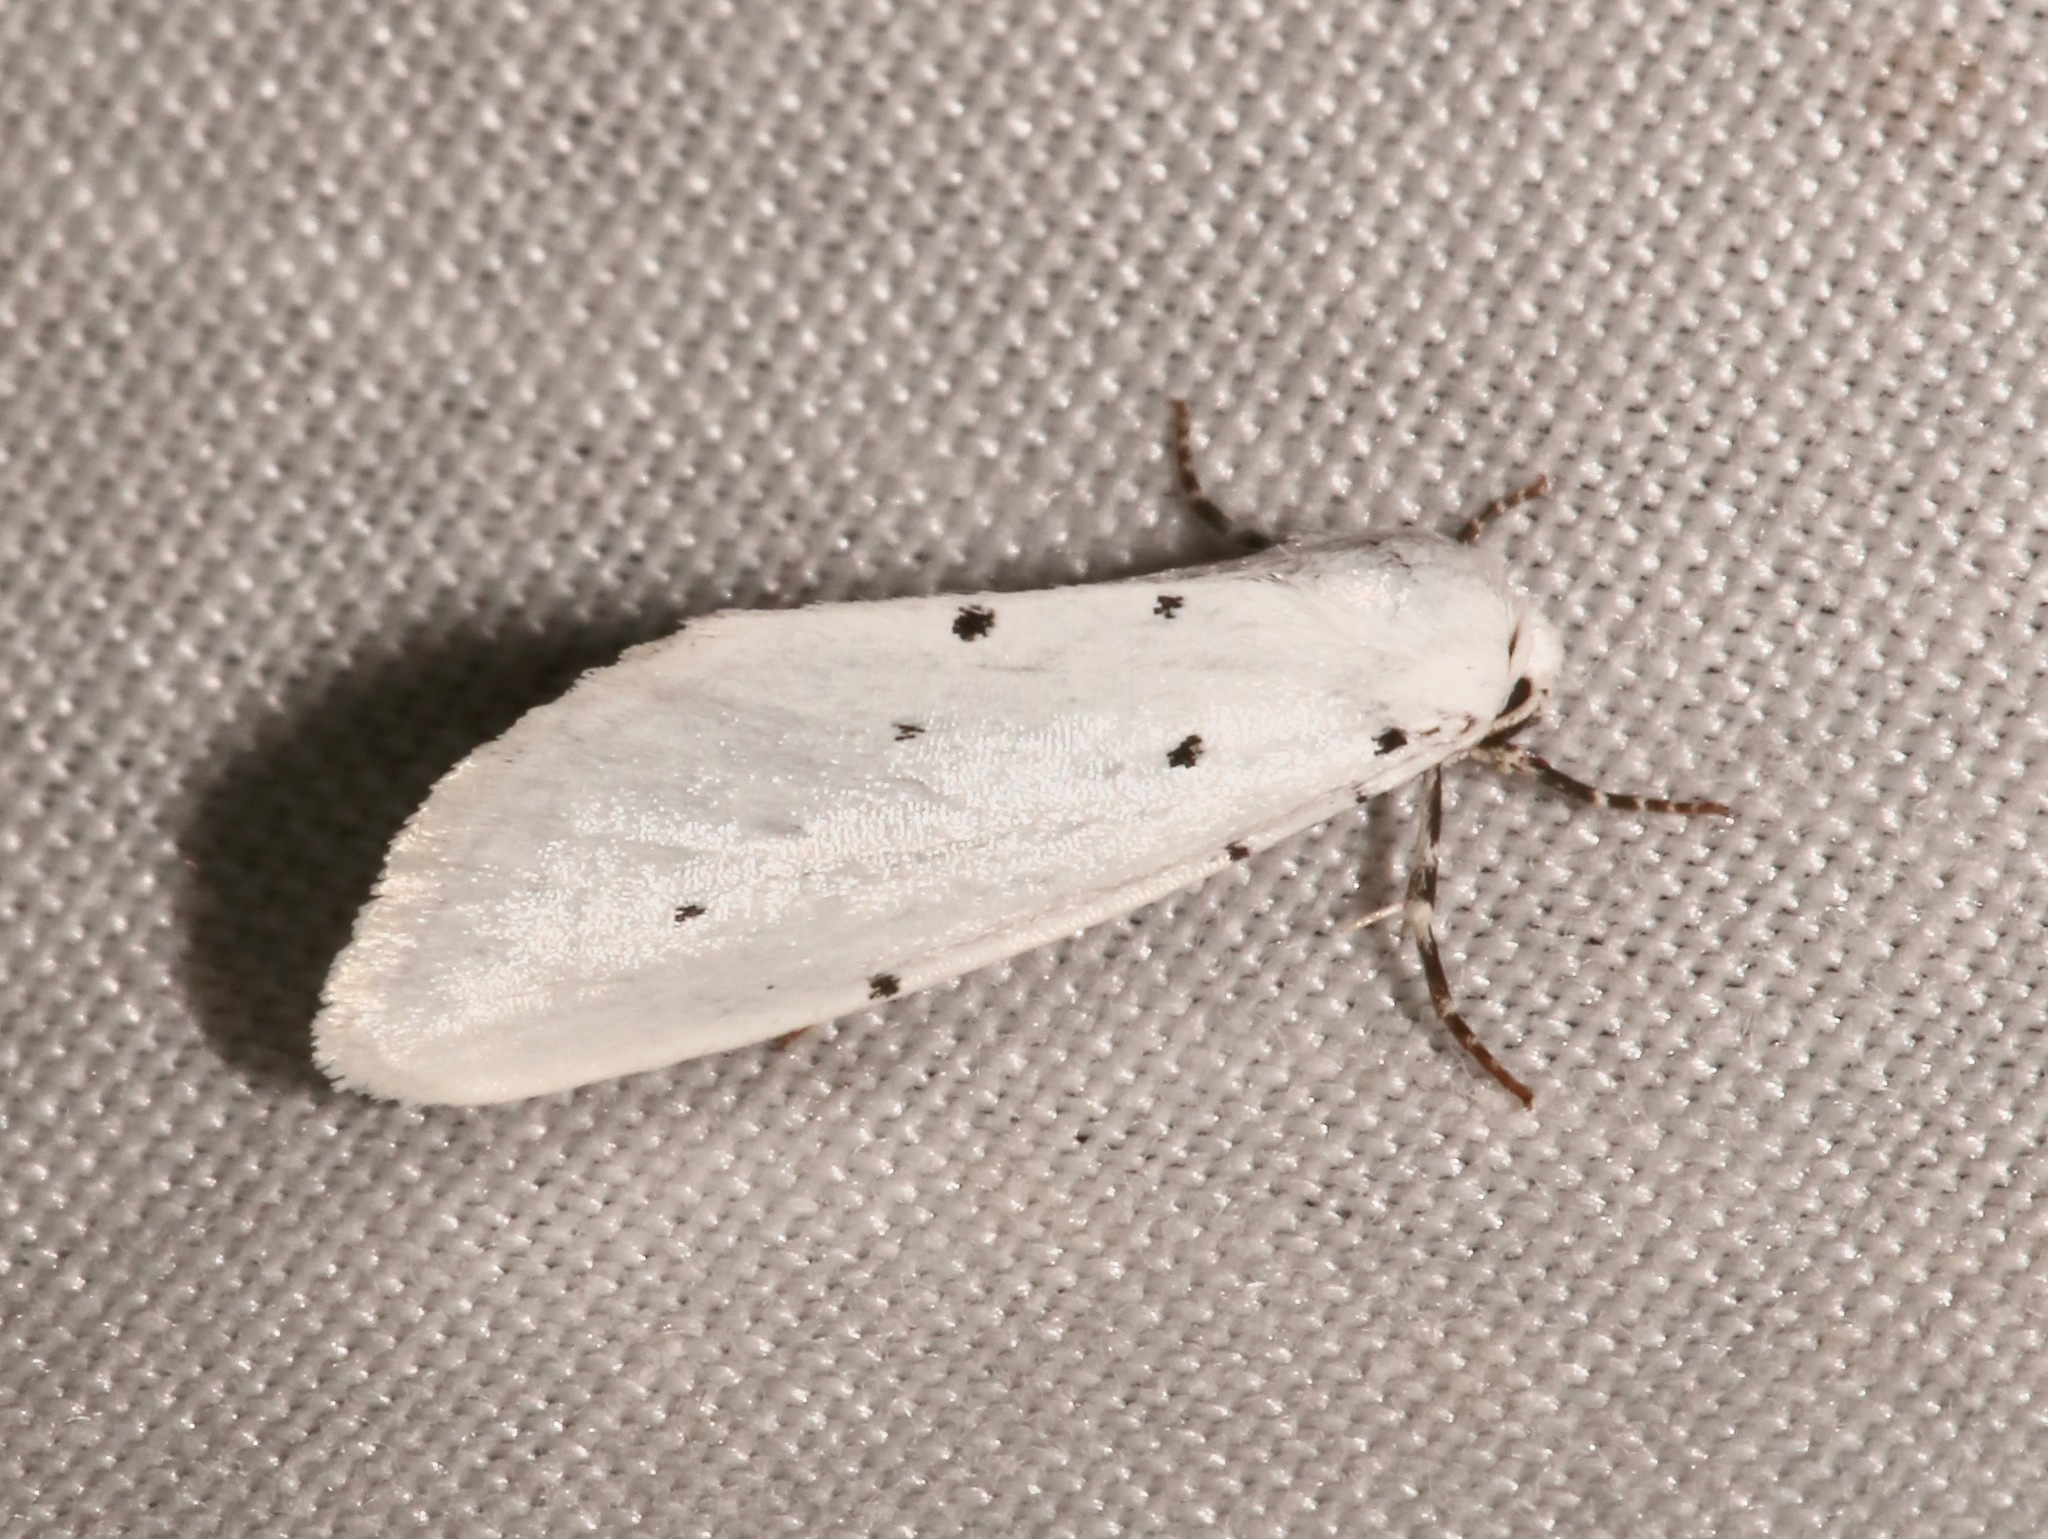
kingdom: Animalia
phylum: Arthropoda
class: Insecta
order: Lepidoptera
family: Noctuidae
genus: Grotella
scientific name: Grotella blanca
